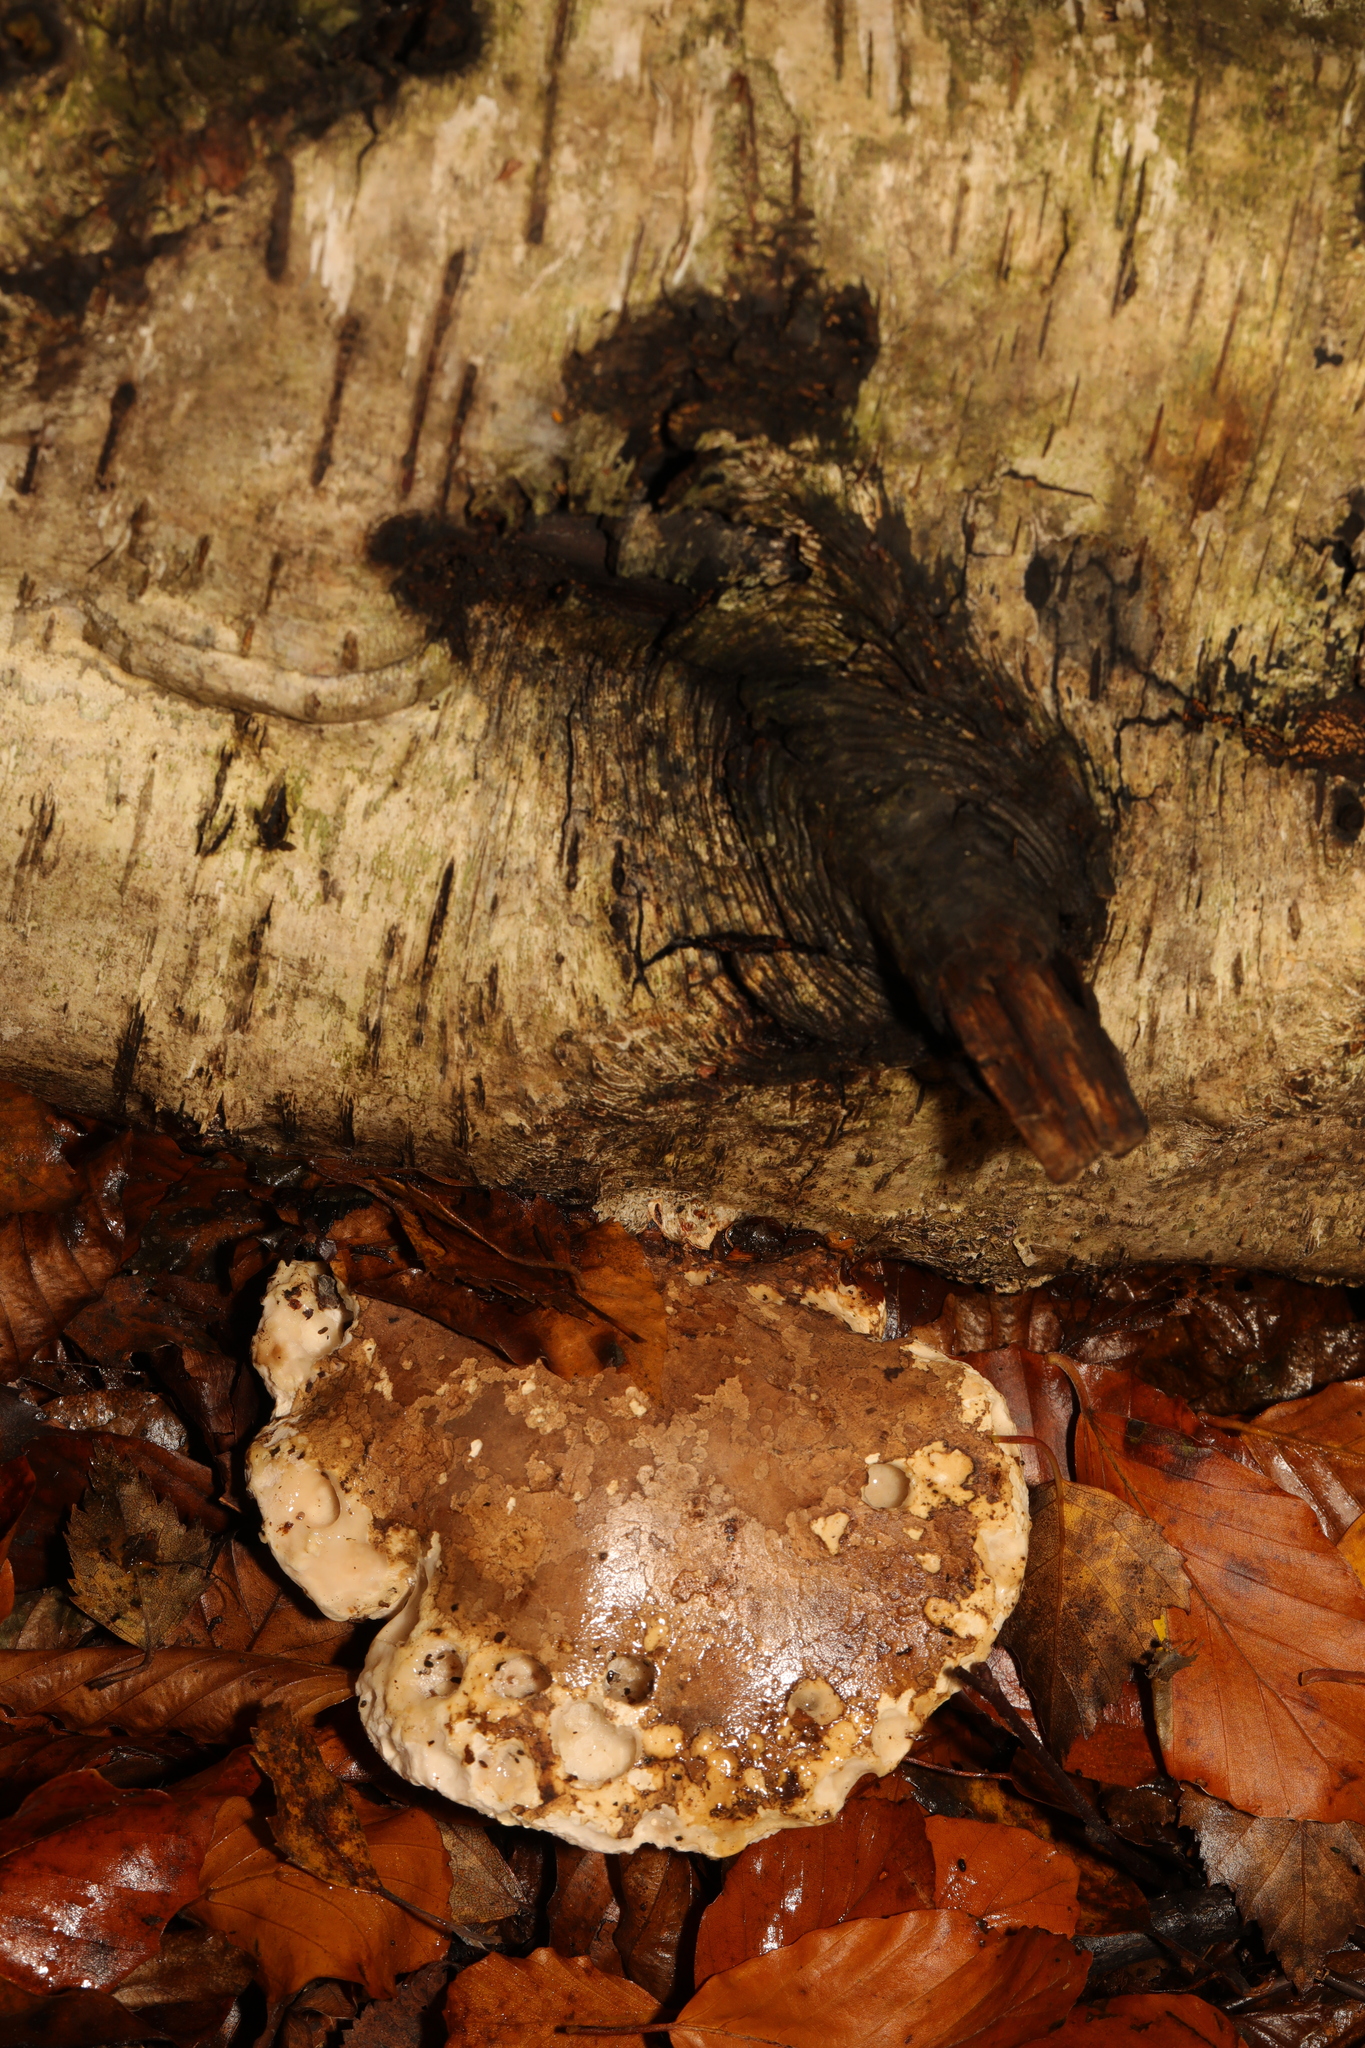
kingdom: Fungi
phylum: Basidiomycota
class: Agaricomycetes
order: Polyporales
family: Fomitopsidaceae
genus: Fomitopsis
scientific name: Fomitopsis betulina
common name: Birch polypore
